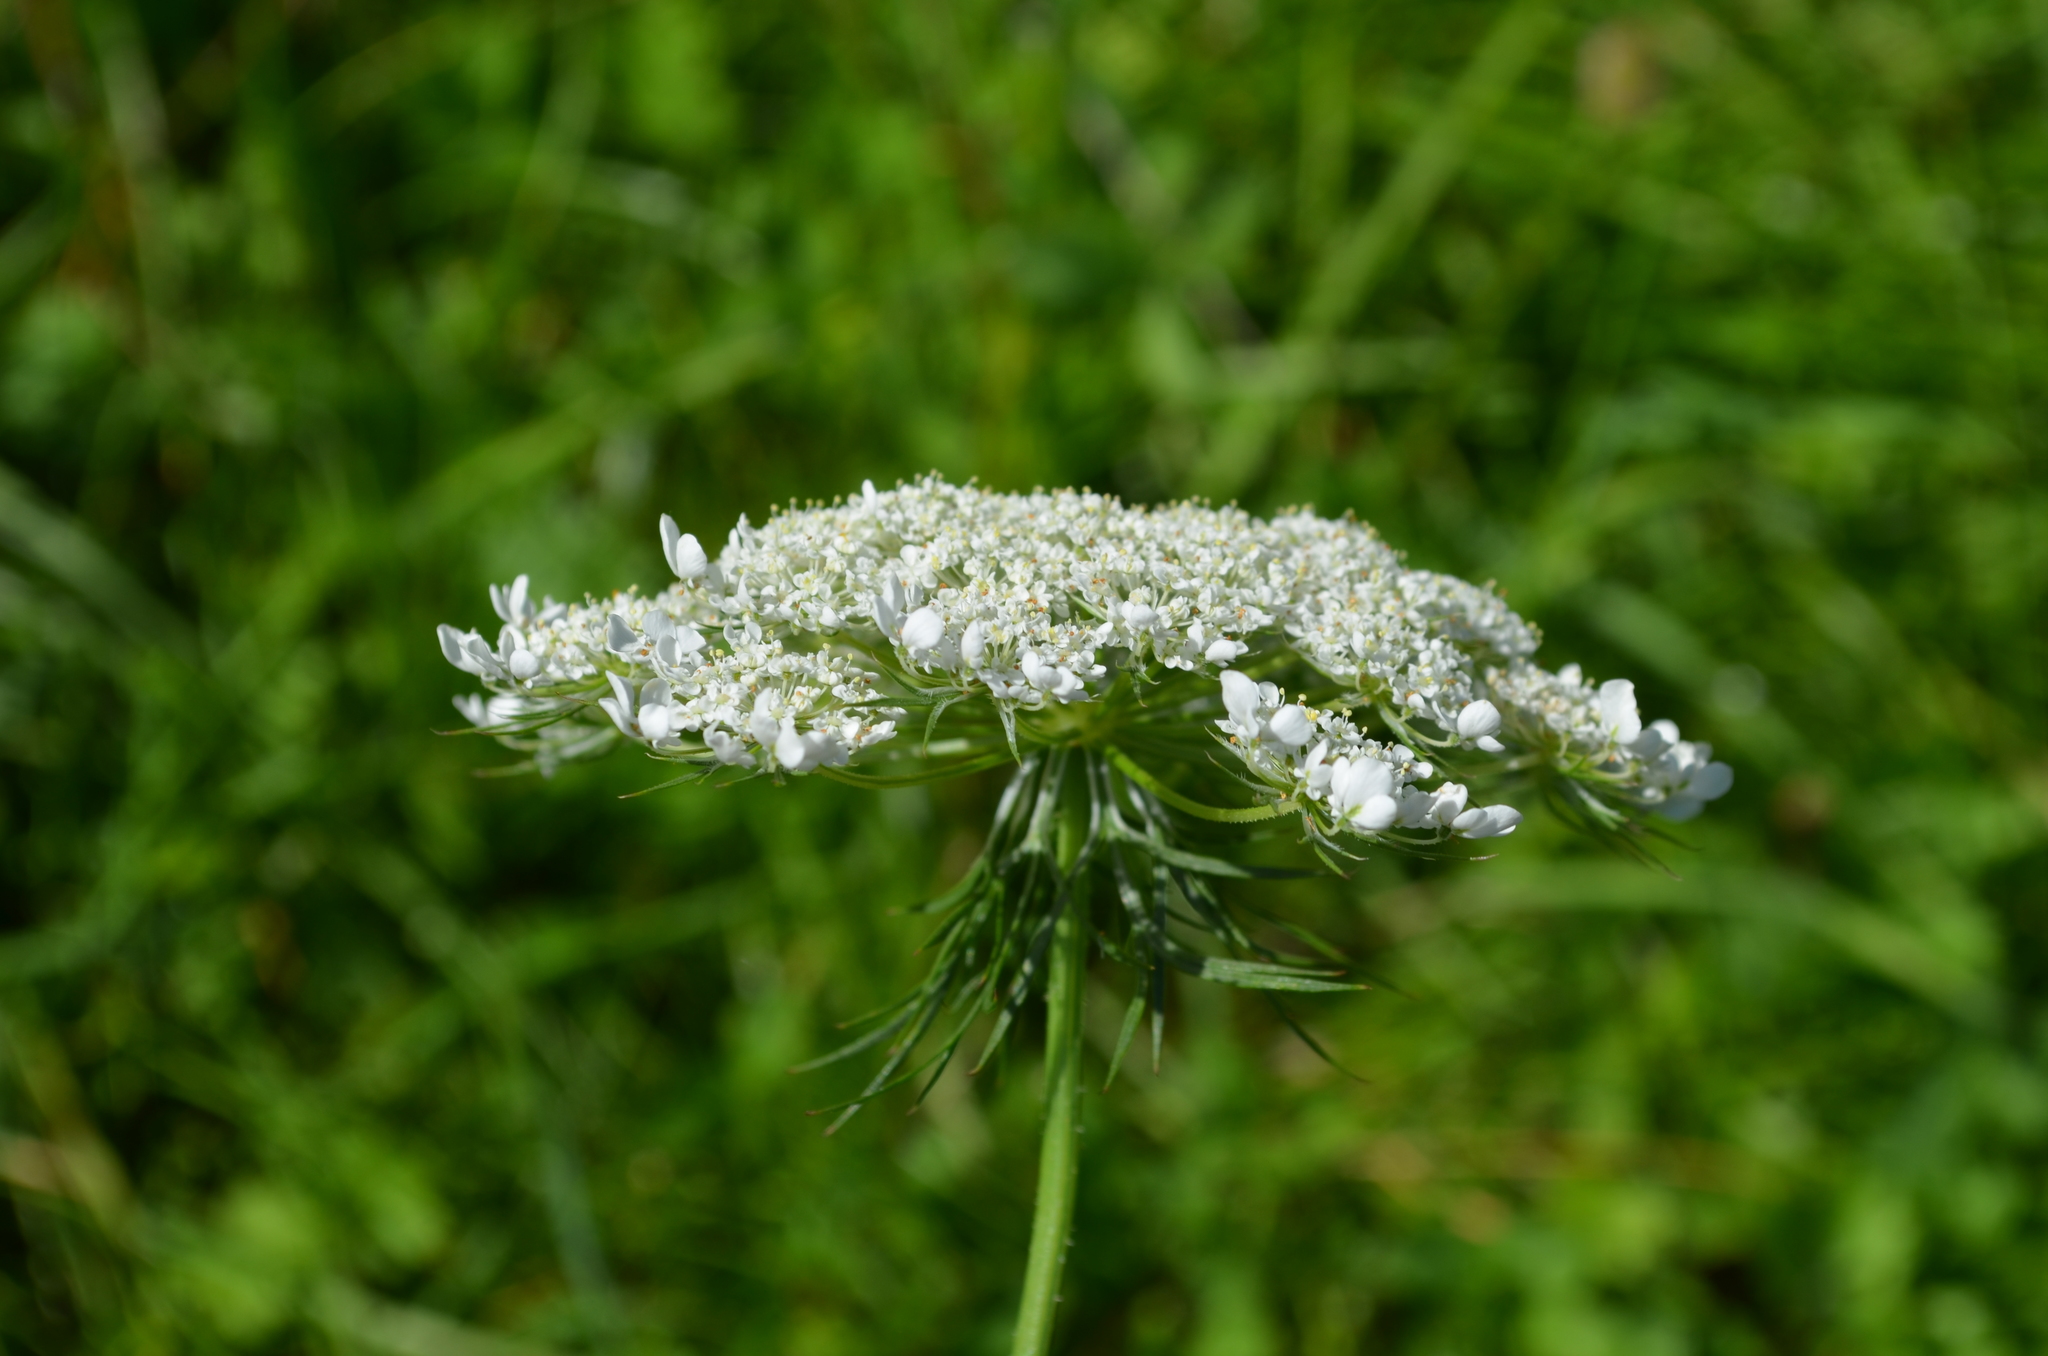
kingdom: Plantae
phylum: Tracheophyta
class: Magnoliopsida
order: Apiales
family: Apiaceae
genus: Daucus
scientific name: Daucus carota
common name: Wild carrot
